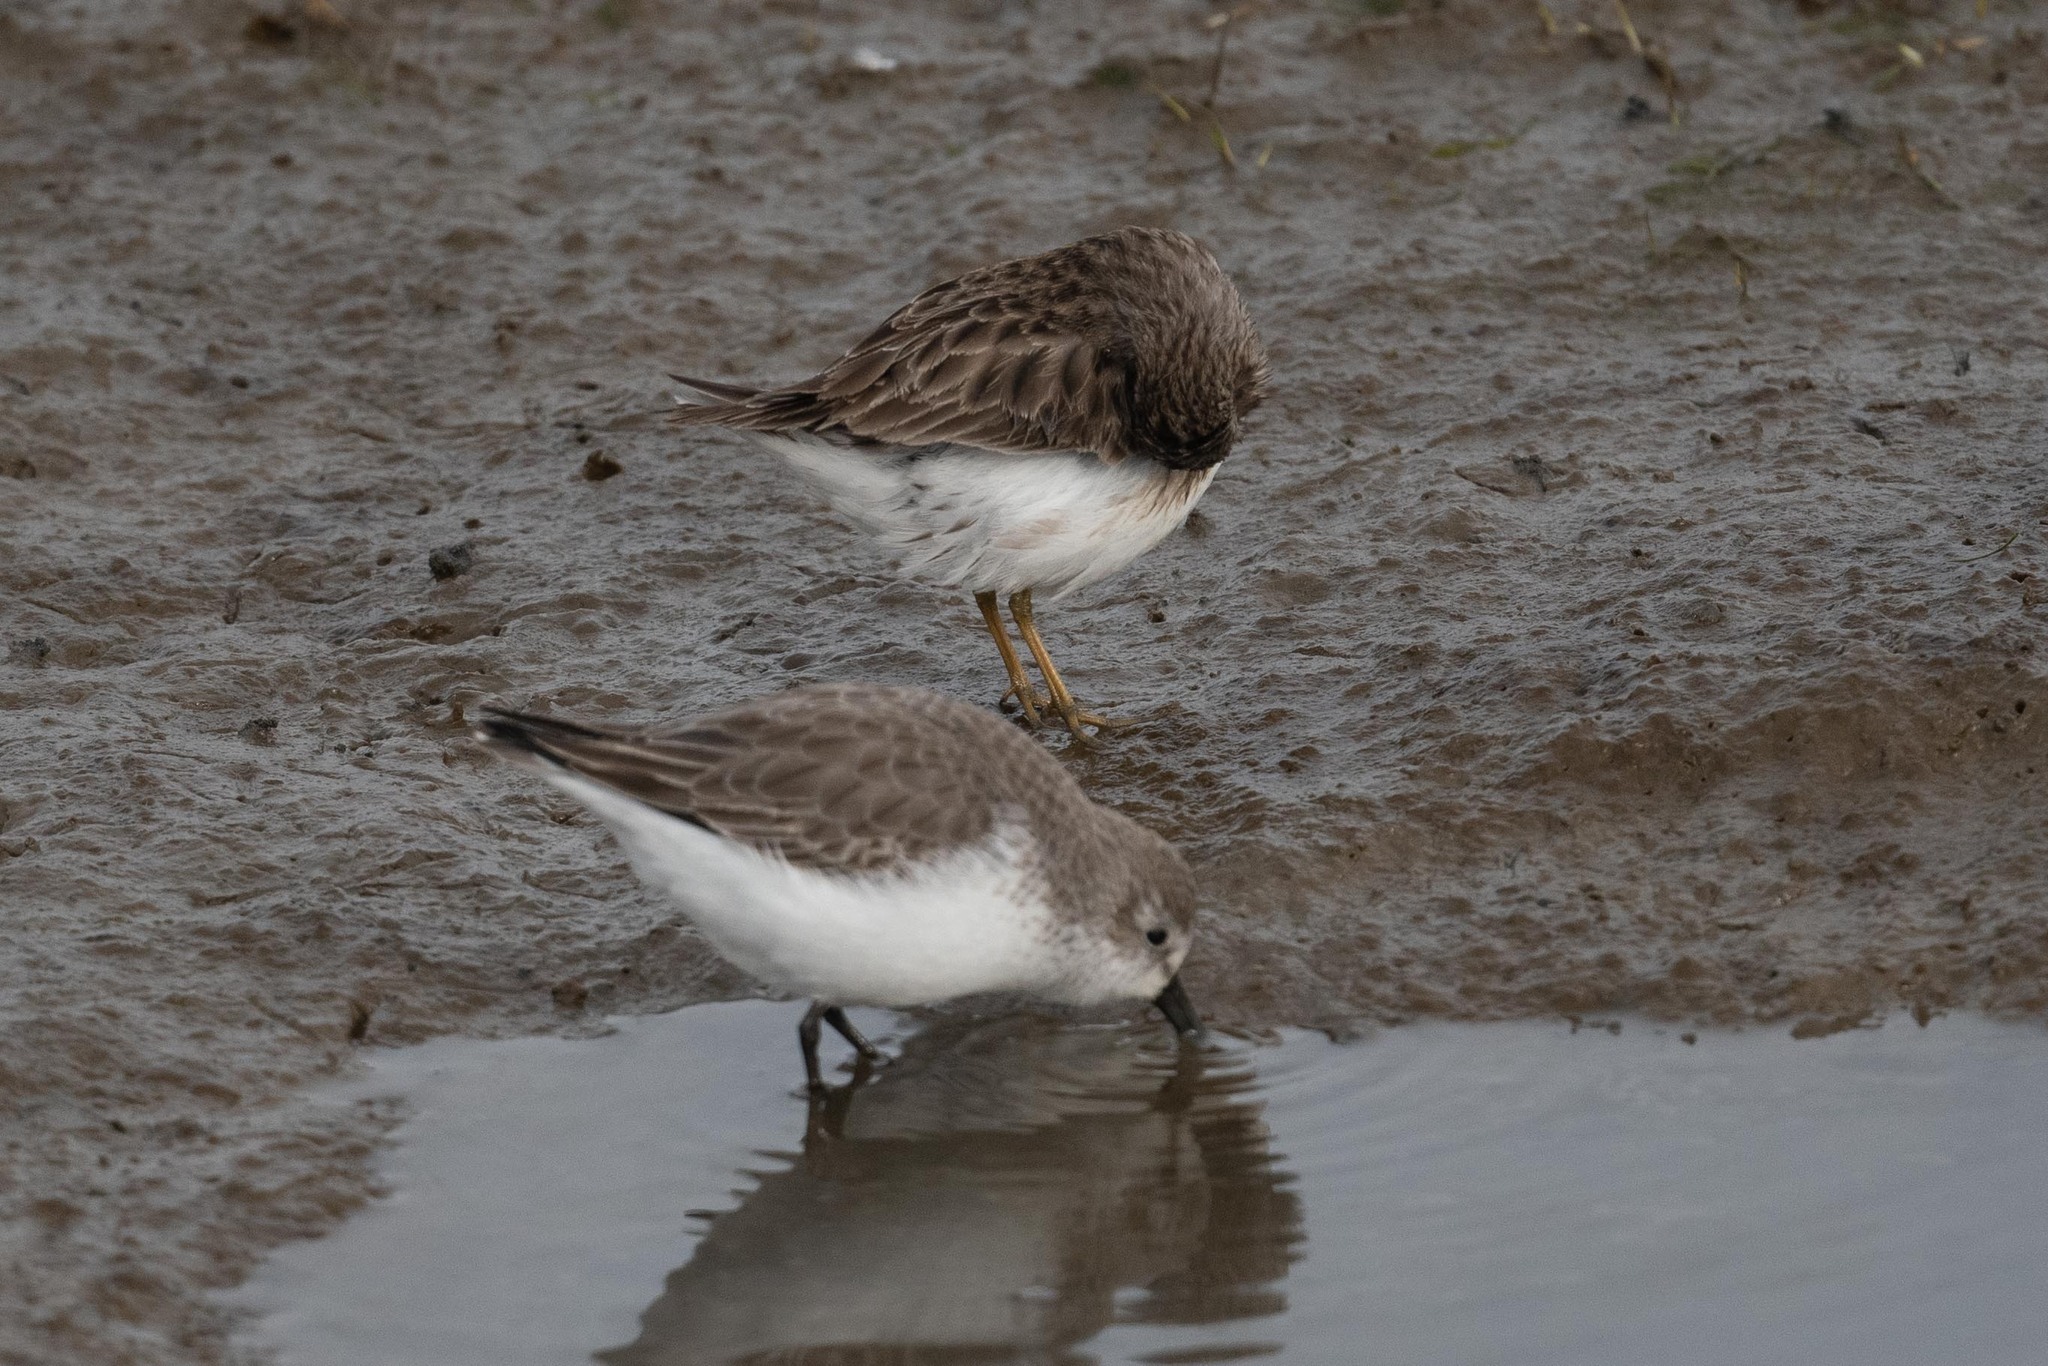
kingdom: Animalia
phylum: Chordata
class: Aves
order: Charadriiformes
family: Scolopacidae
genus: Calidris
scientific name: Calidris mauri
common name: Western sandpiper
